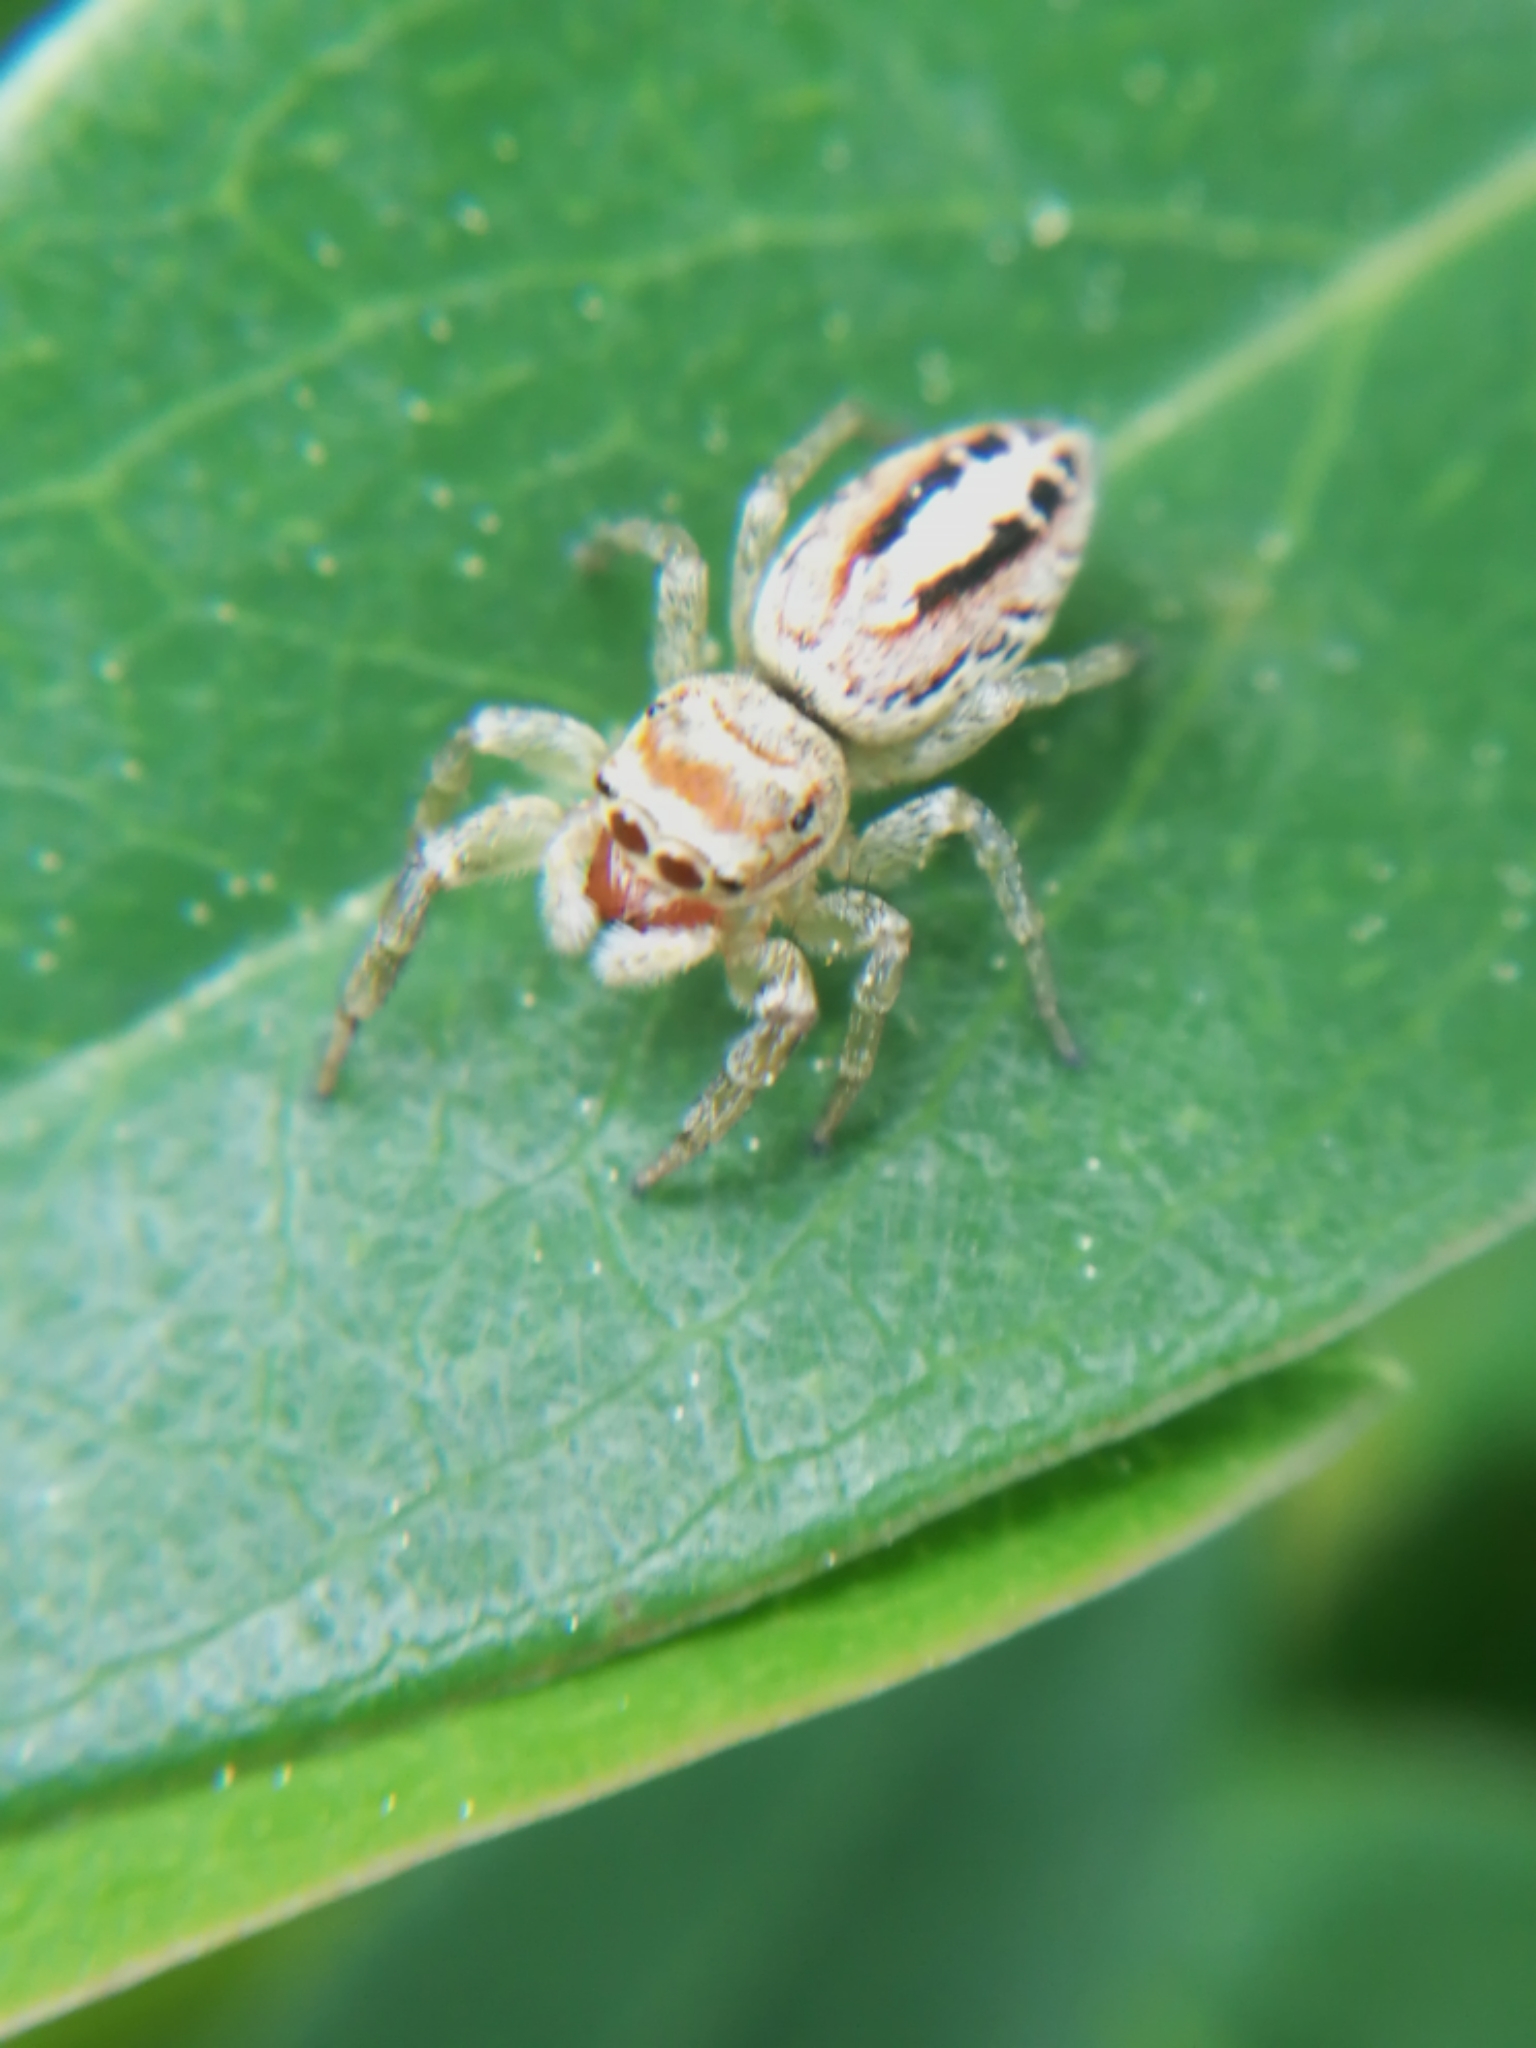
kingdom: Animalia
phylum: Arthropoda
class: Arachnida
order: Araneae
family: Salticidae
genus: Icius
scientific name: Icius hamatus
